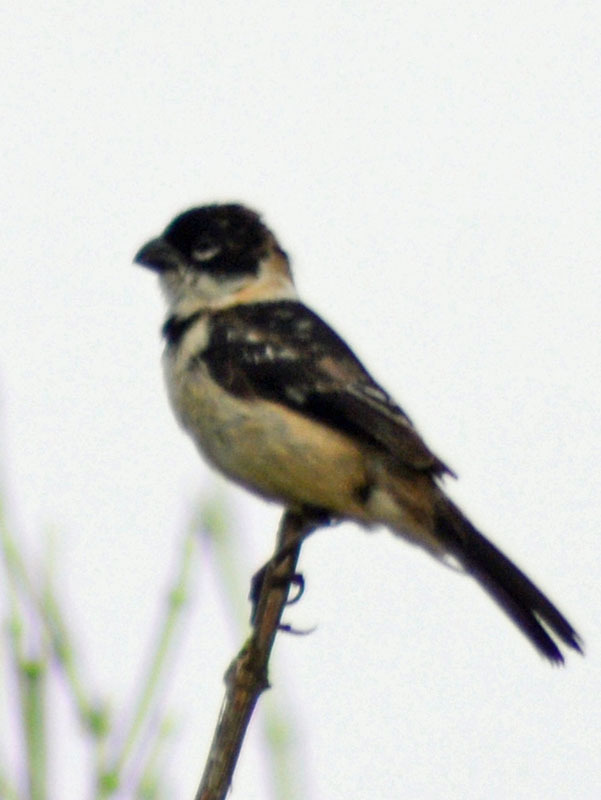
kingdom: Animalia
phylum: Chordata
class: Aves
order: Passeriformes
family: Thraupidae
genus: Sporophila
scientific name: Sporophila morelleti
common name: Morelet's seedeater
